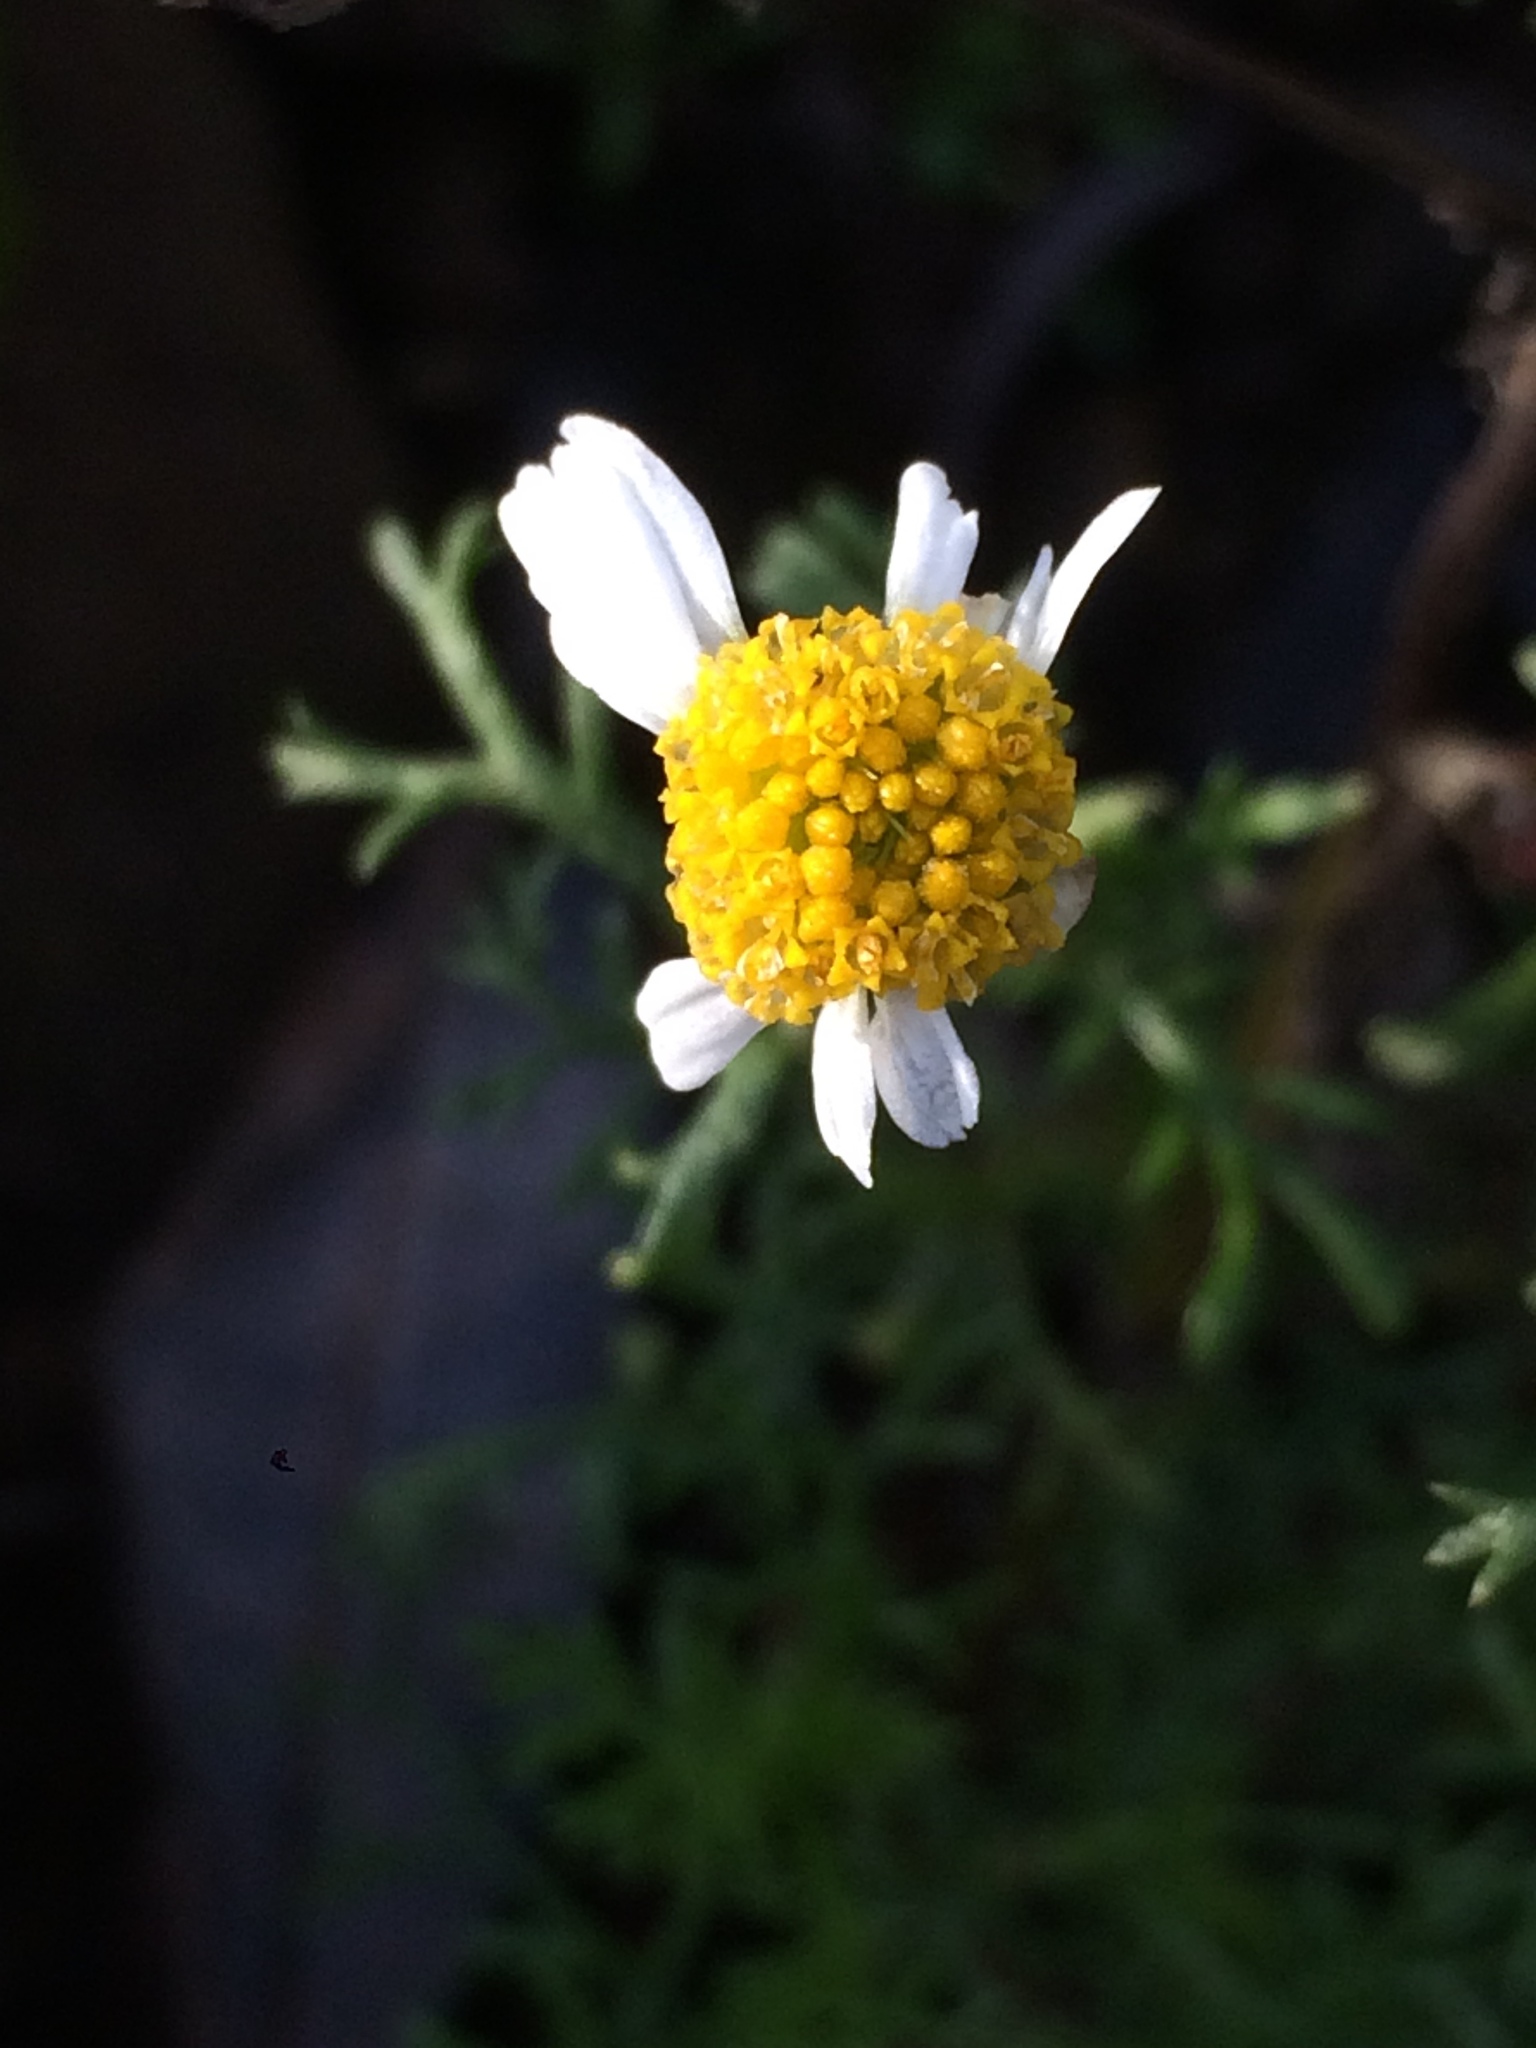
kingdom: Plantae
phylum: Tracheophyta
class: Magnoliopsida
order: Asterales
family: Asteraceae
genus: Anthemis
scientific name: Anthemis cotula
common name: Stinking chamomile
